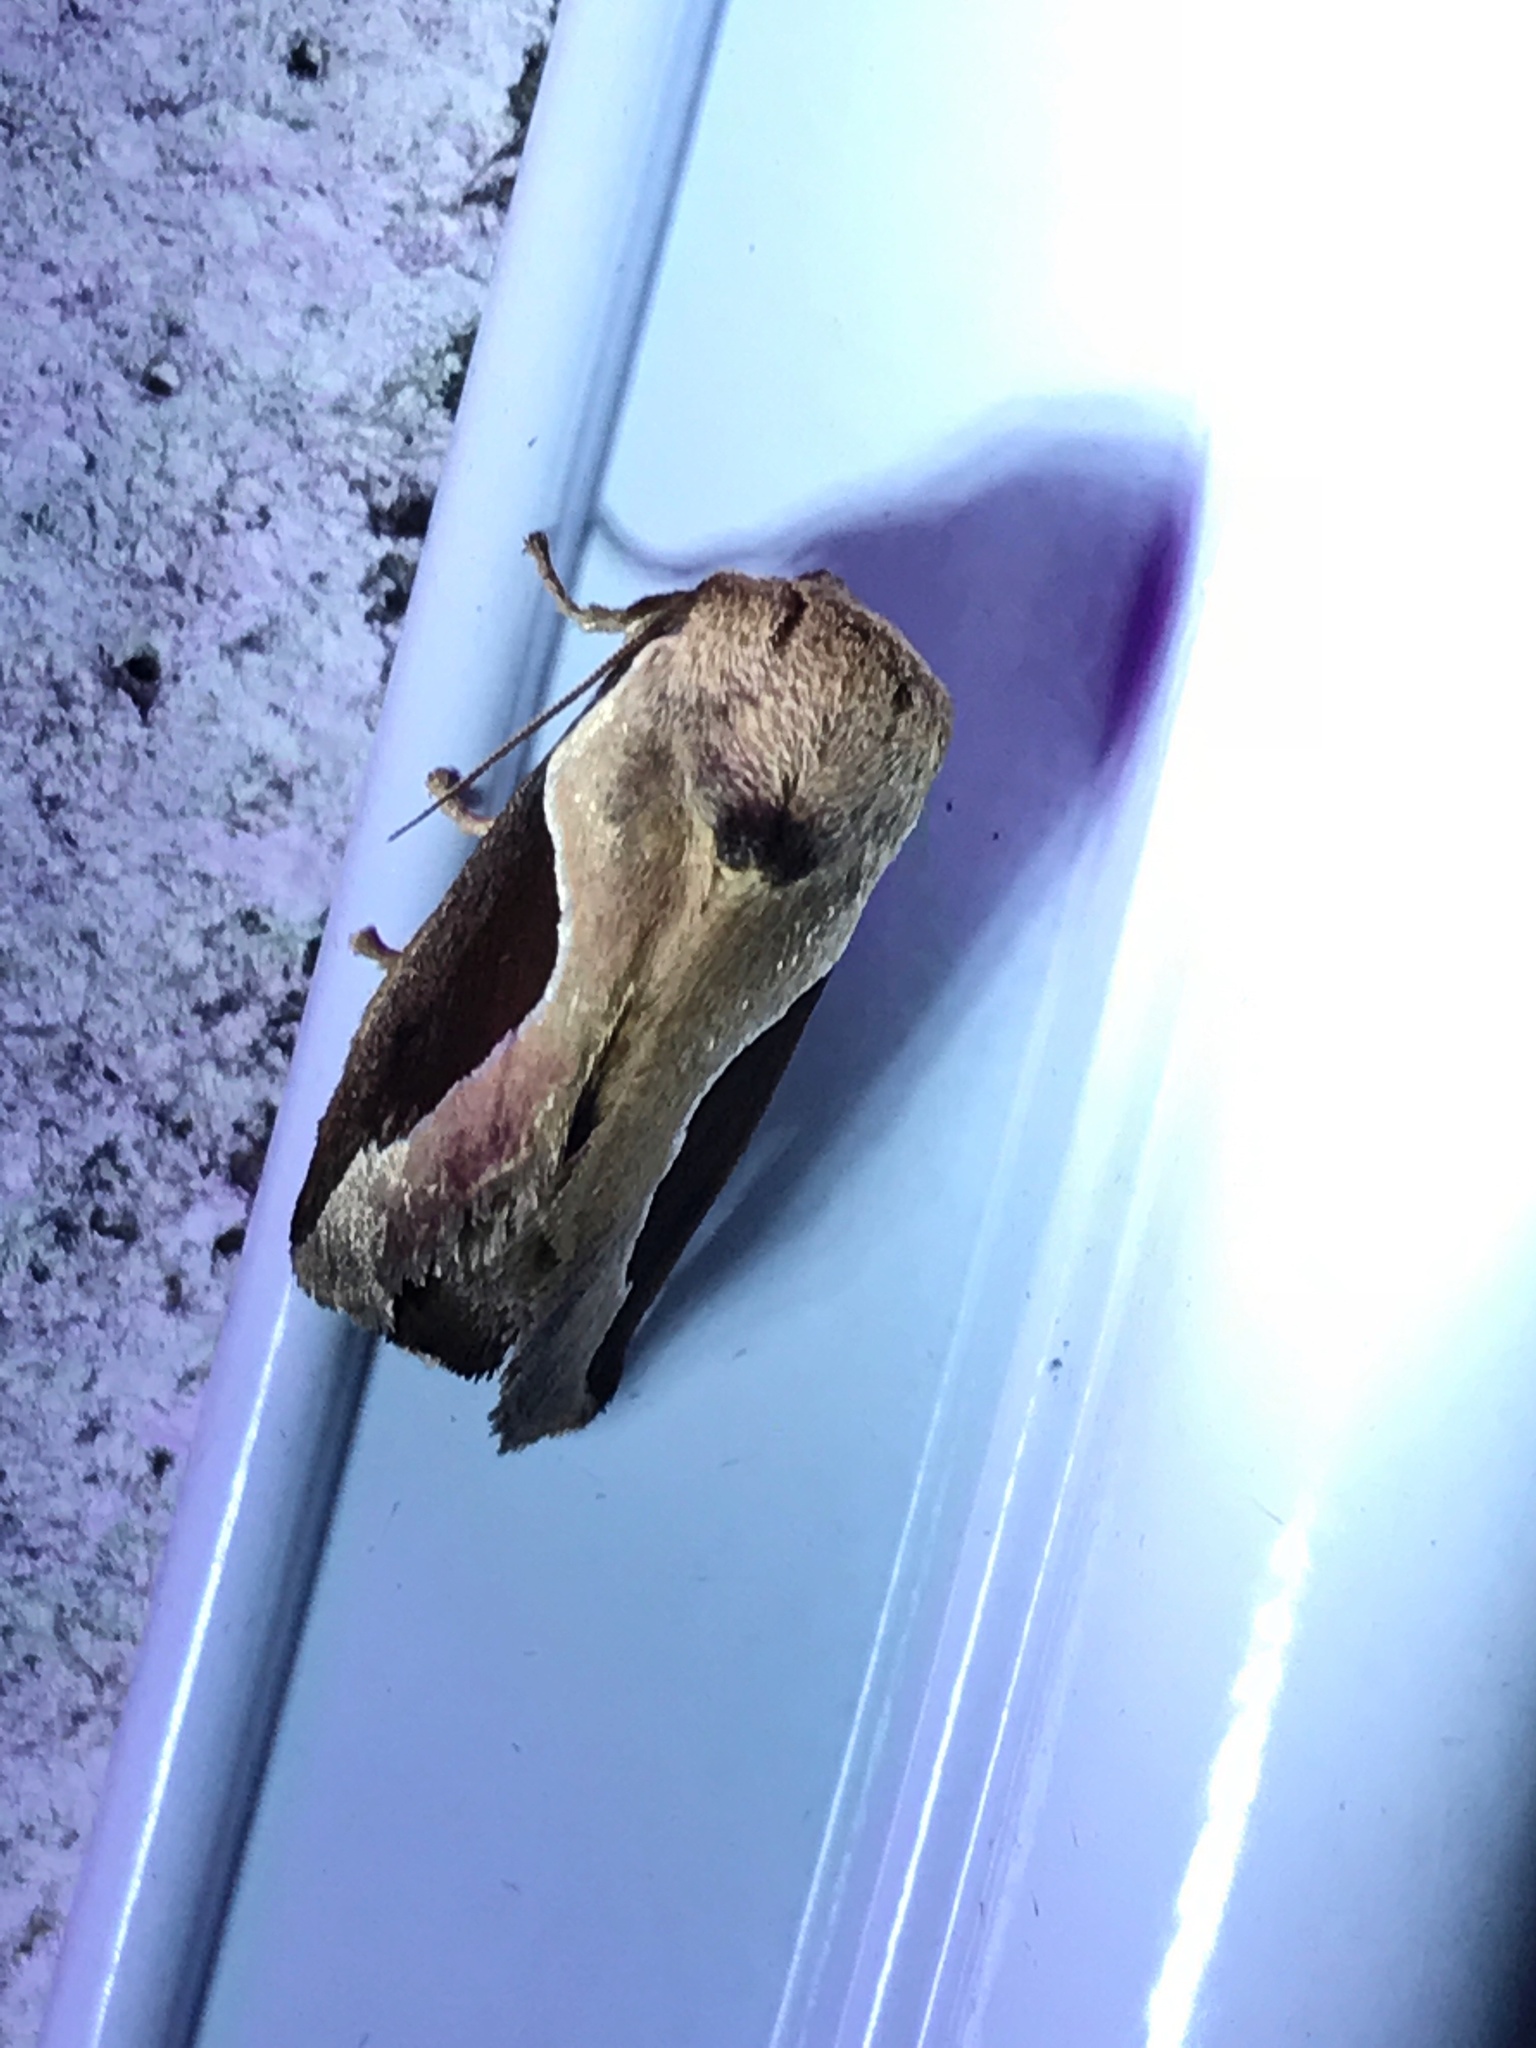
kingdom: Animalia
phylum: Arthropoda
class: Insecta
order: Lepidoptera
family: Limacodidae
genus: Prolimacodes
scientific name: Prolimacodes badia
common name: Skiff moth
